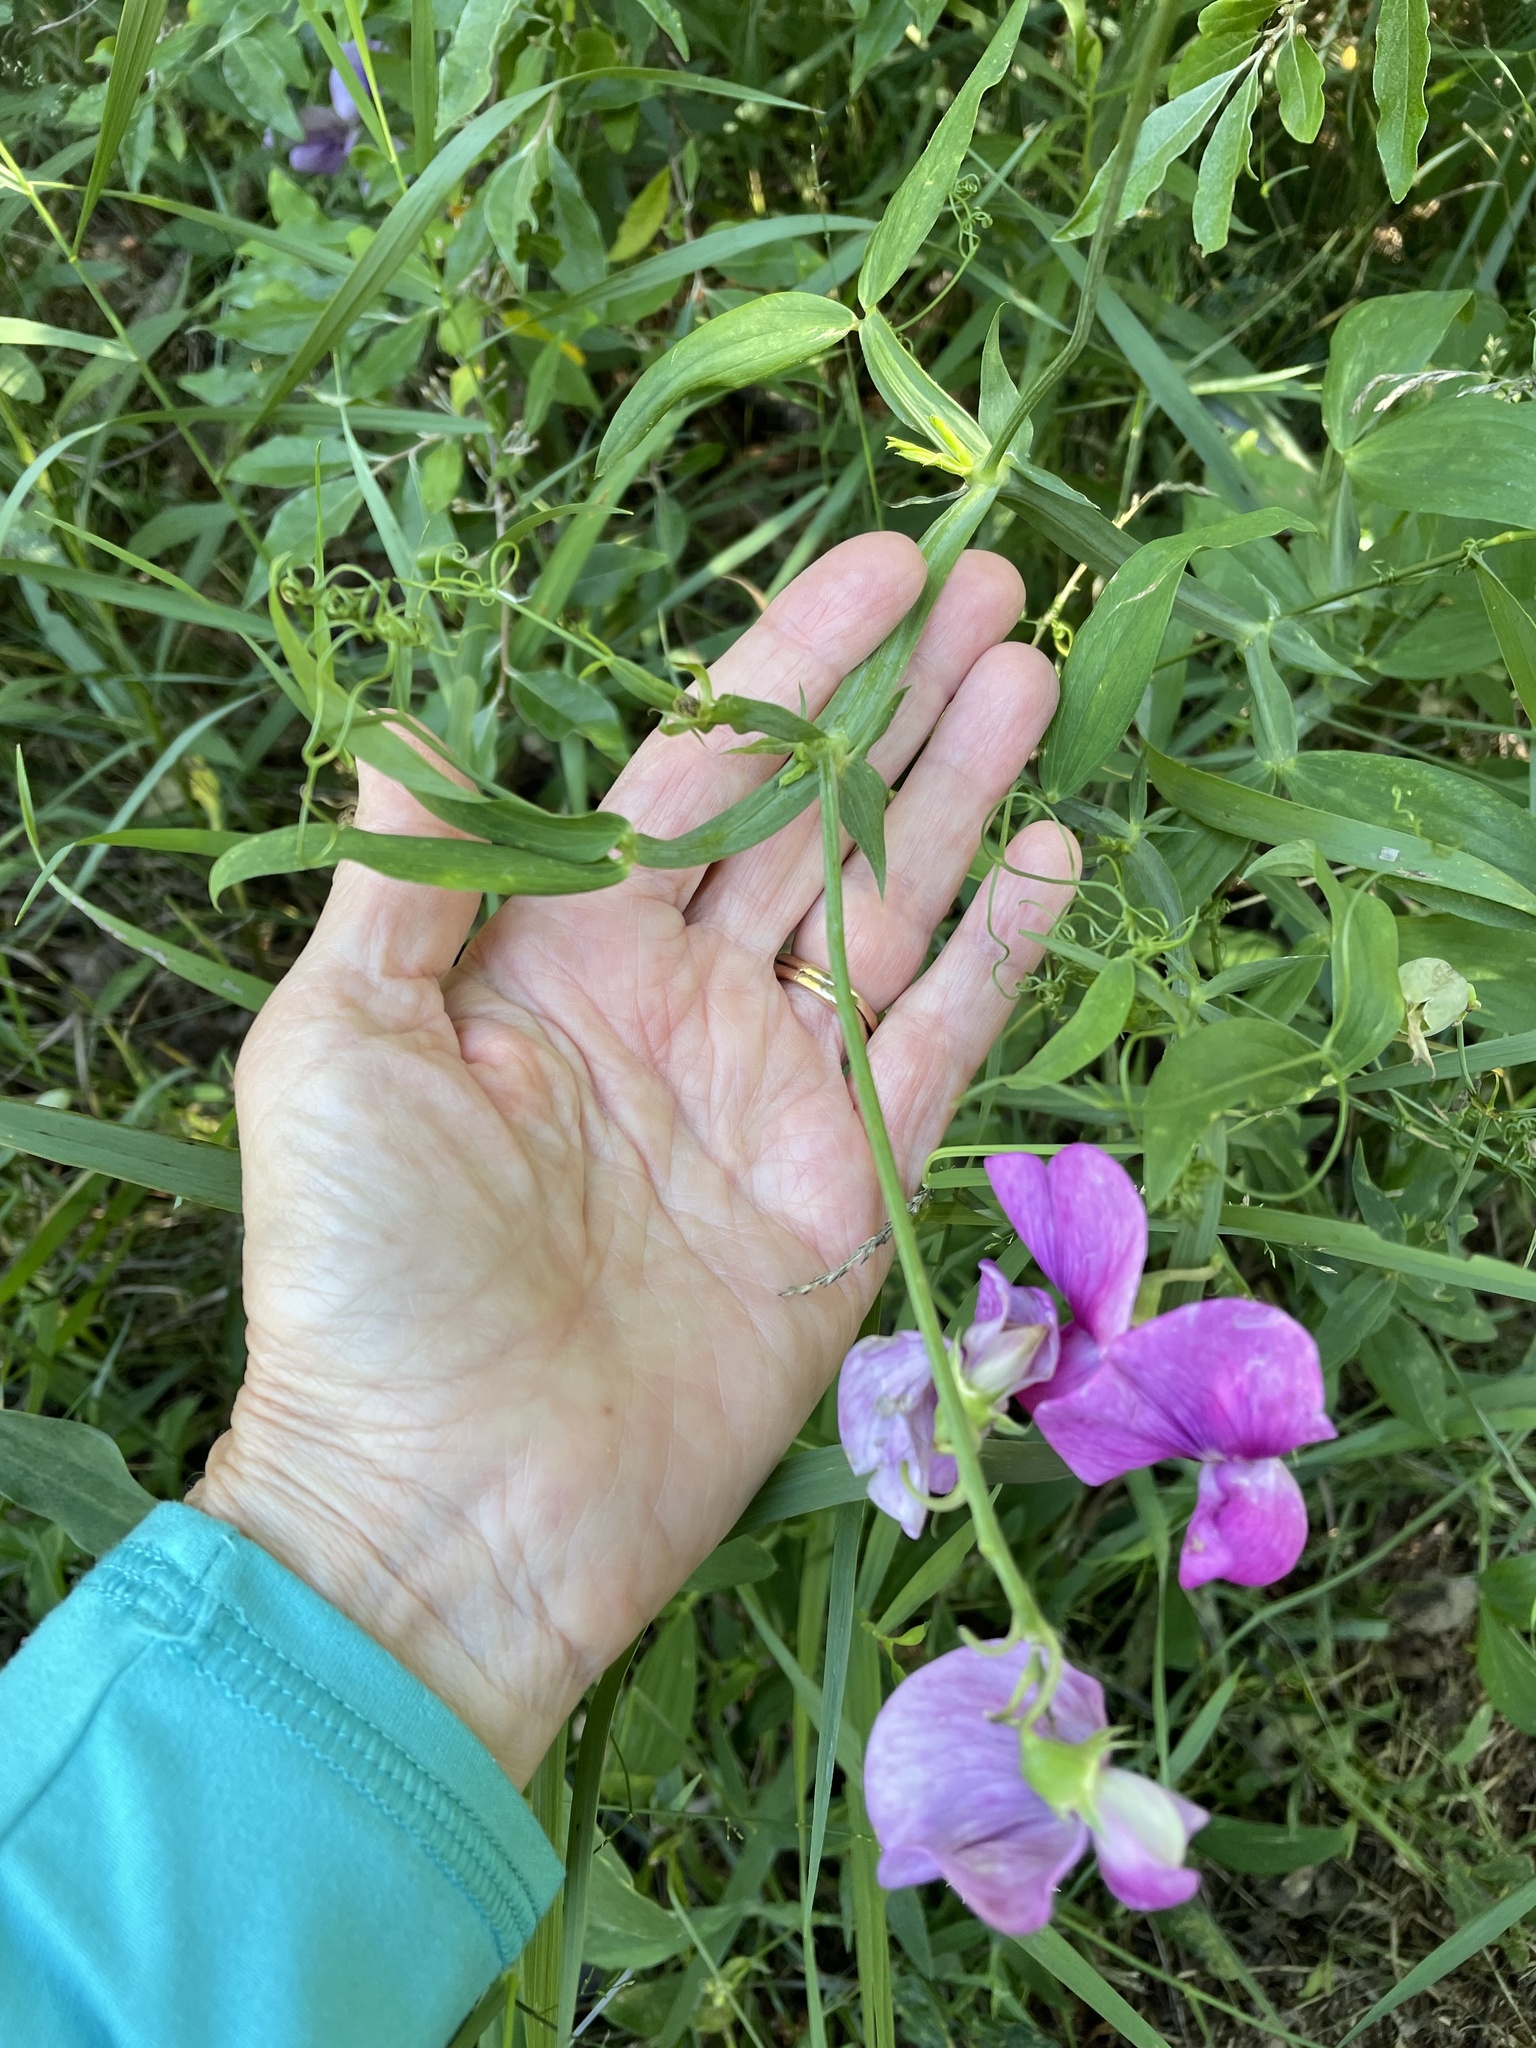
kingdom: Plantae
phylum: Tracheophyta
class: Magnoliopsida
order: Fabales
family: Fabaceae
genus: Lathyrus
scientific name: Lathyrus latifolius
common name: Perennial pea
